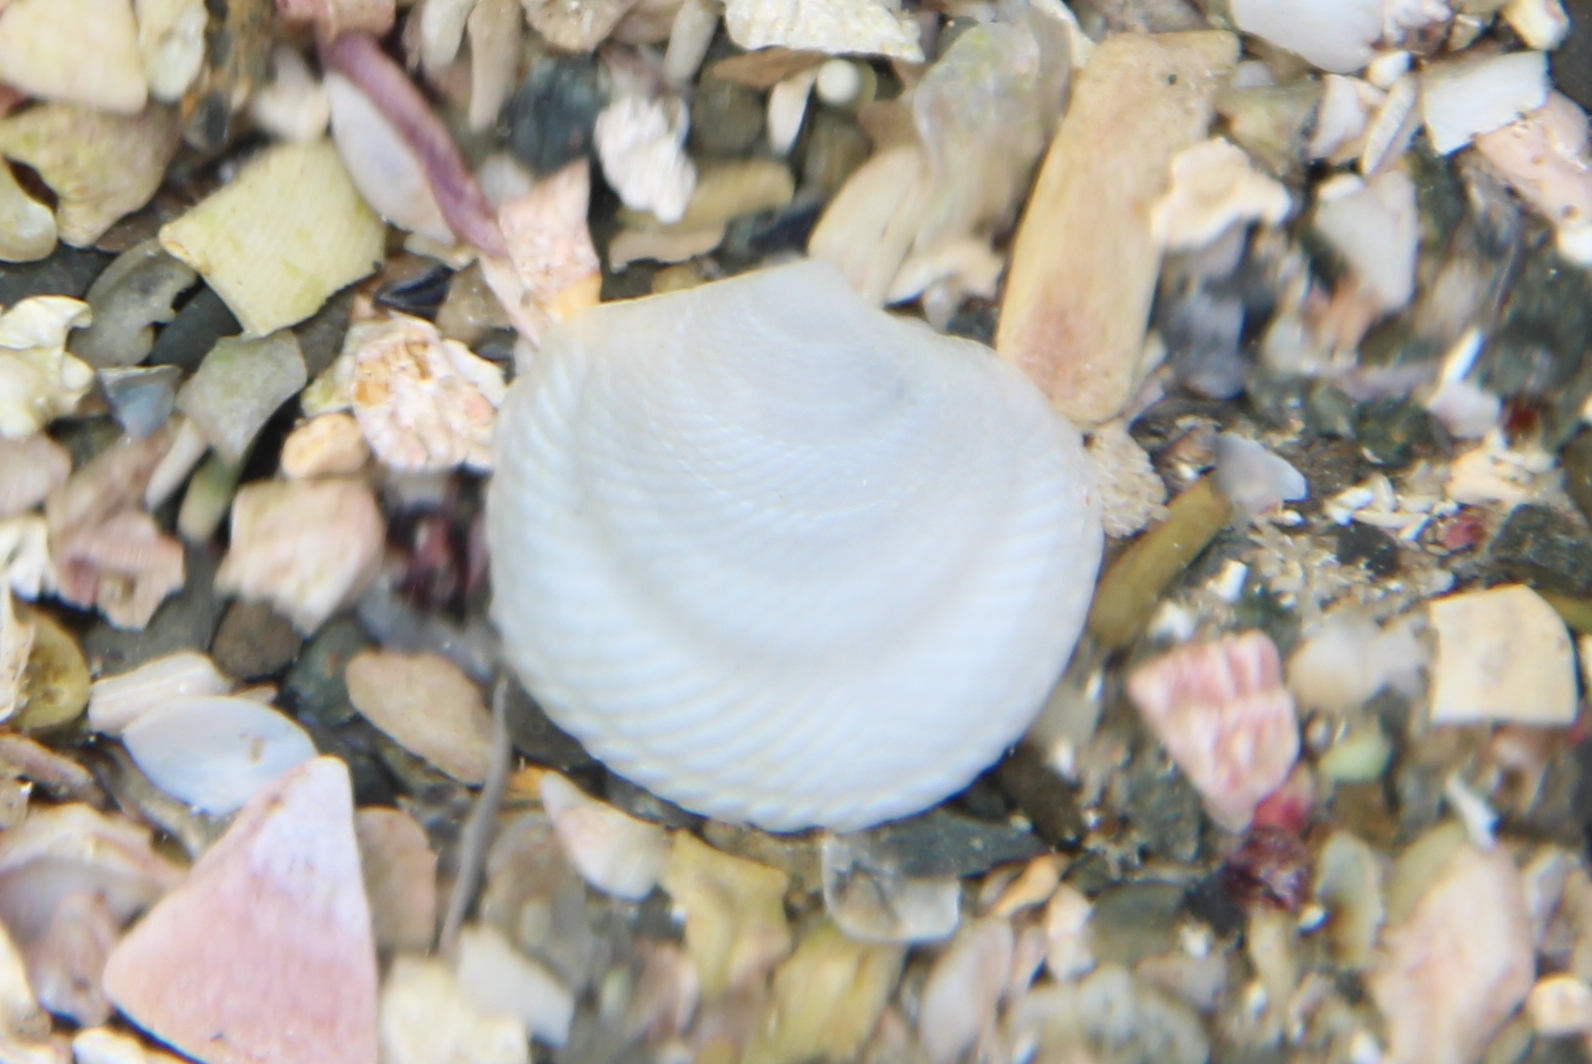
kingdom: Animalia
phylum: Mollusca
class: Bivalvia
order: Lucinida
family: Lucinidae
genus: Divalucina
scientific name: Divalucina cumingi
